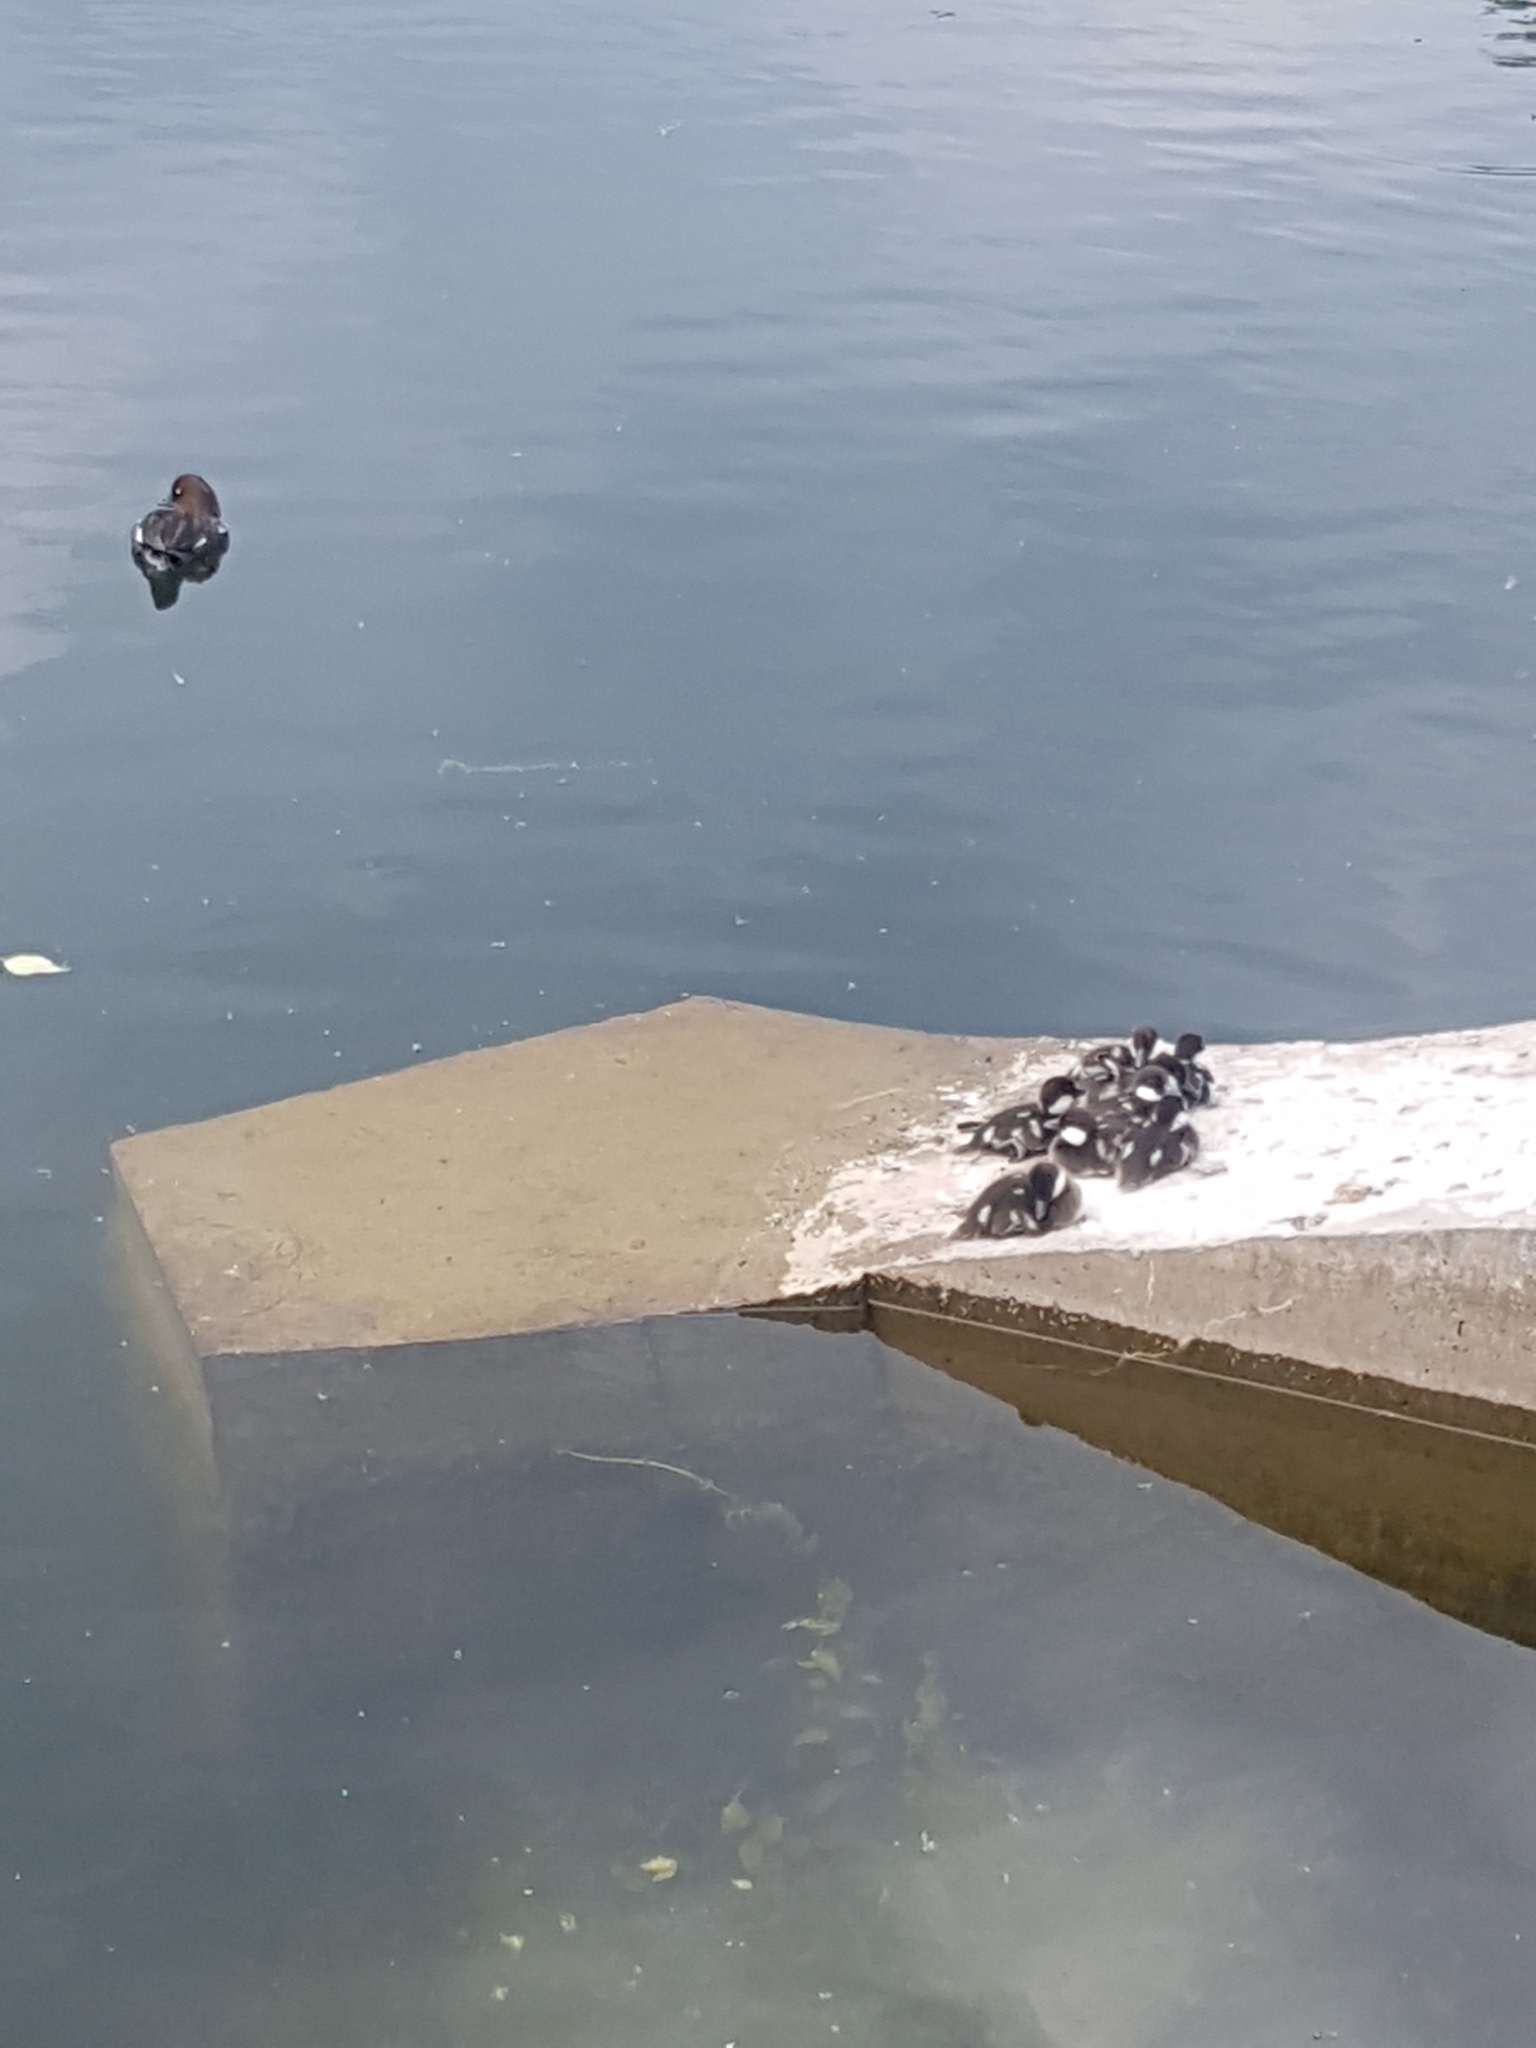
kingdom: Animalia
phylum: Chordata
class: Aves
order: Anseriformes
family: Anatidae
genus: Bucephala
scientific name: Bucephala clangula
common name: Common goldeneye
